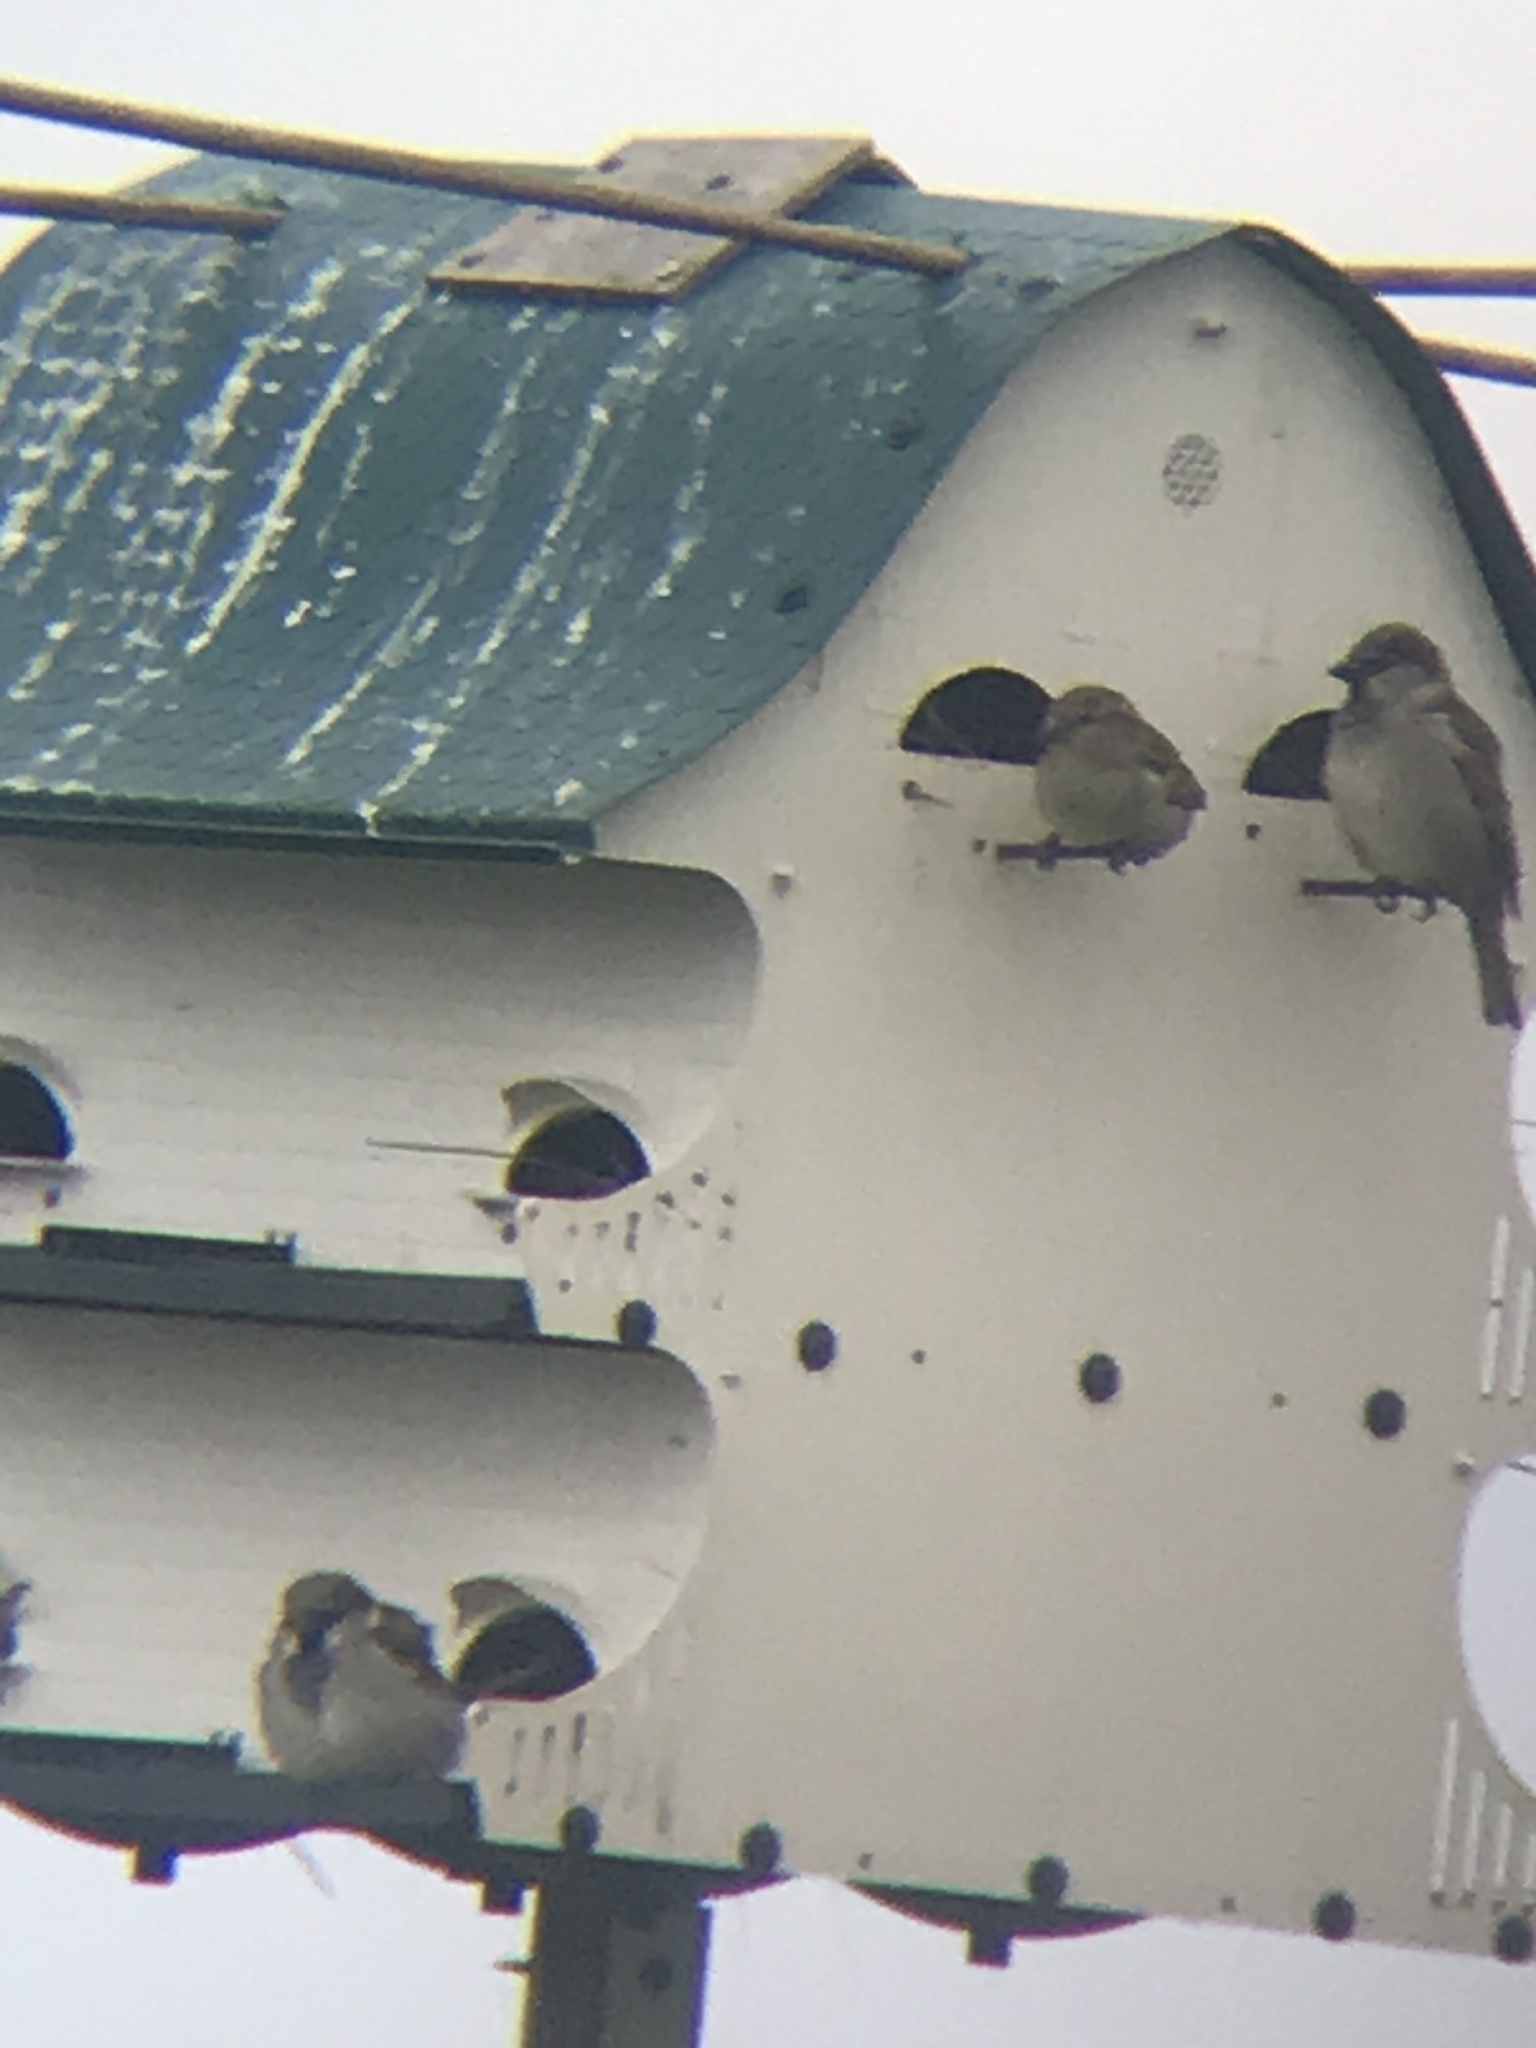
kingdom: Animalia
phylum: Chordata
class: Aves
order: Passeriformes
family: Passeridae
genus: Passer
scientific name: Passer domesticus
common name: House sparrow
